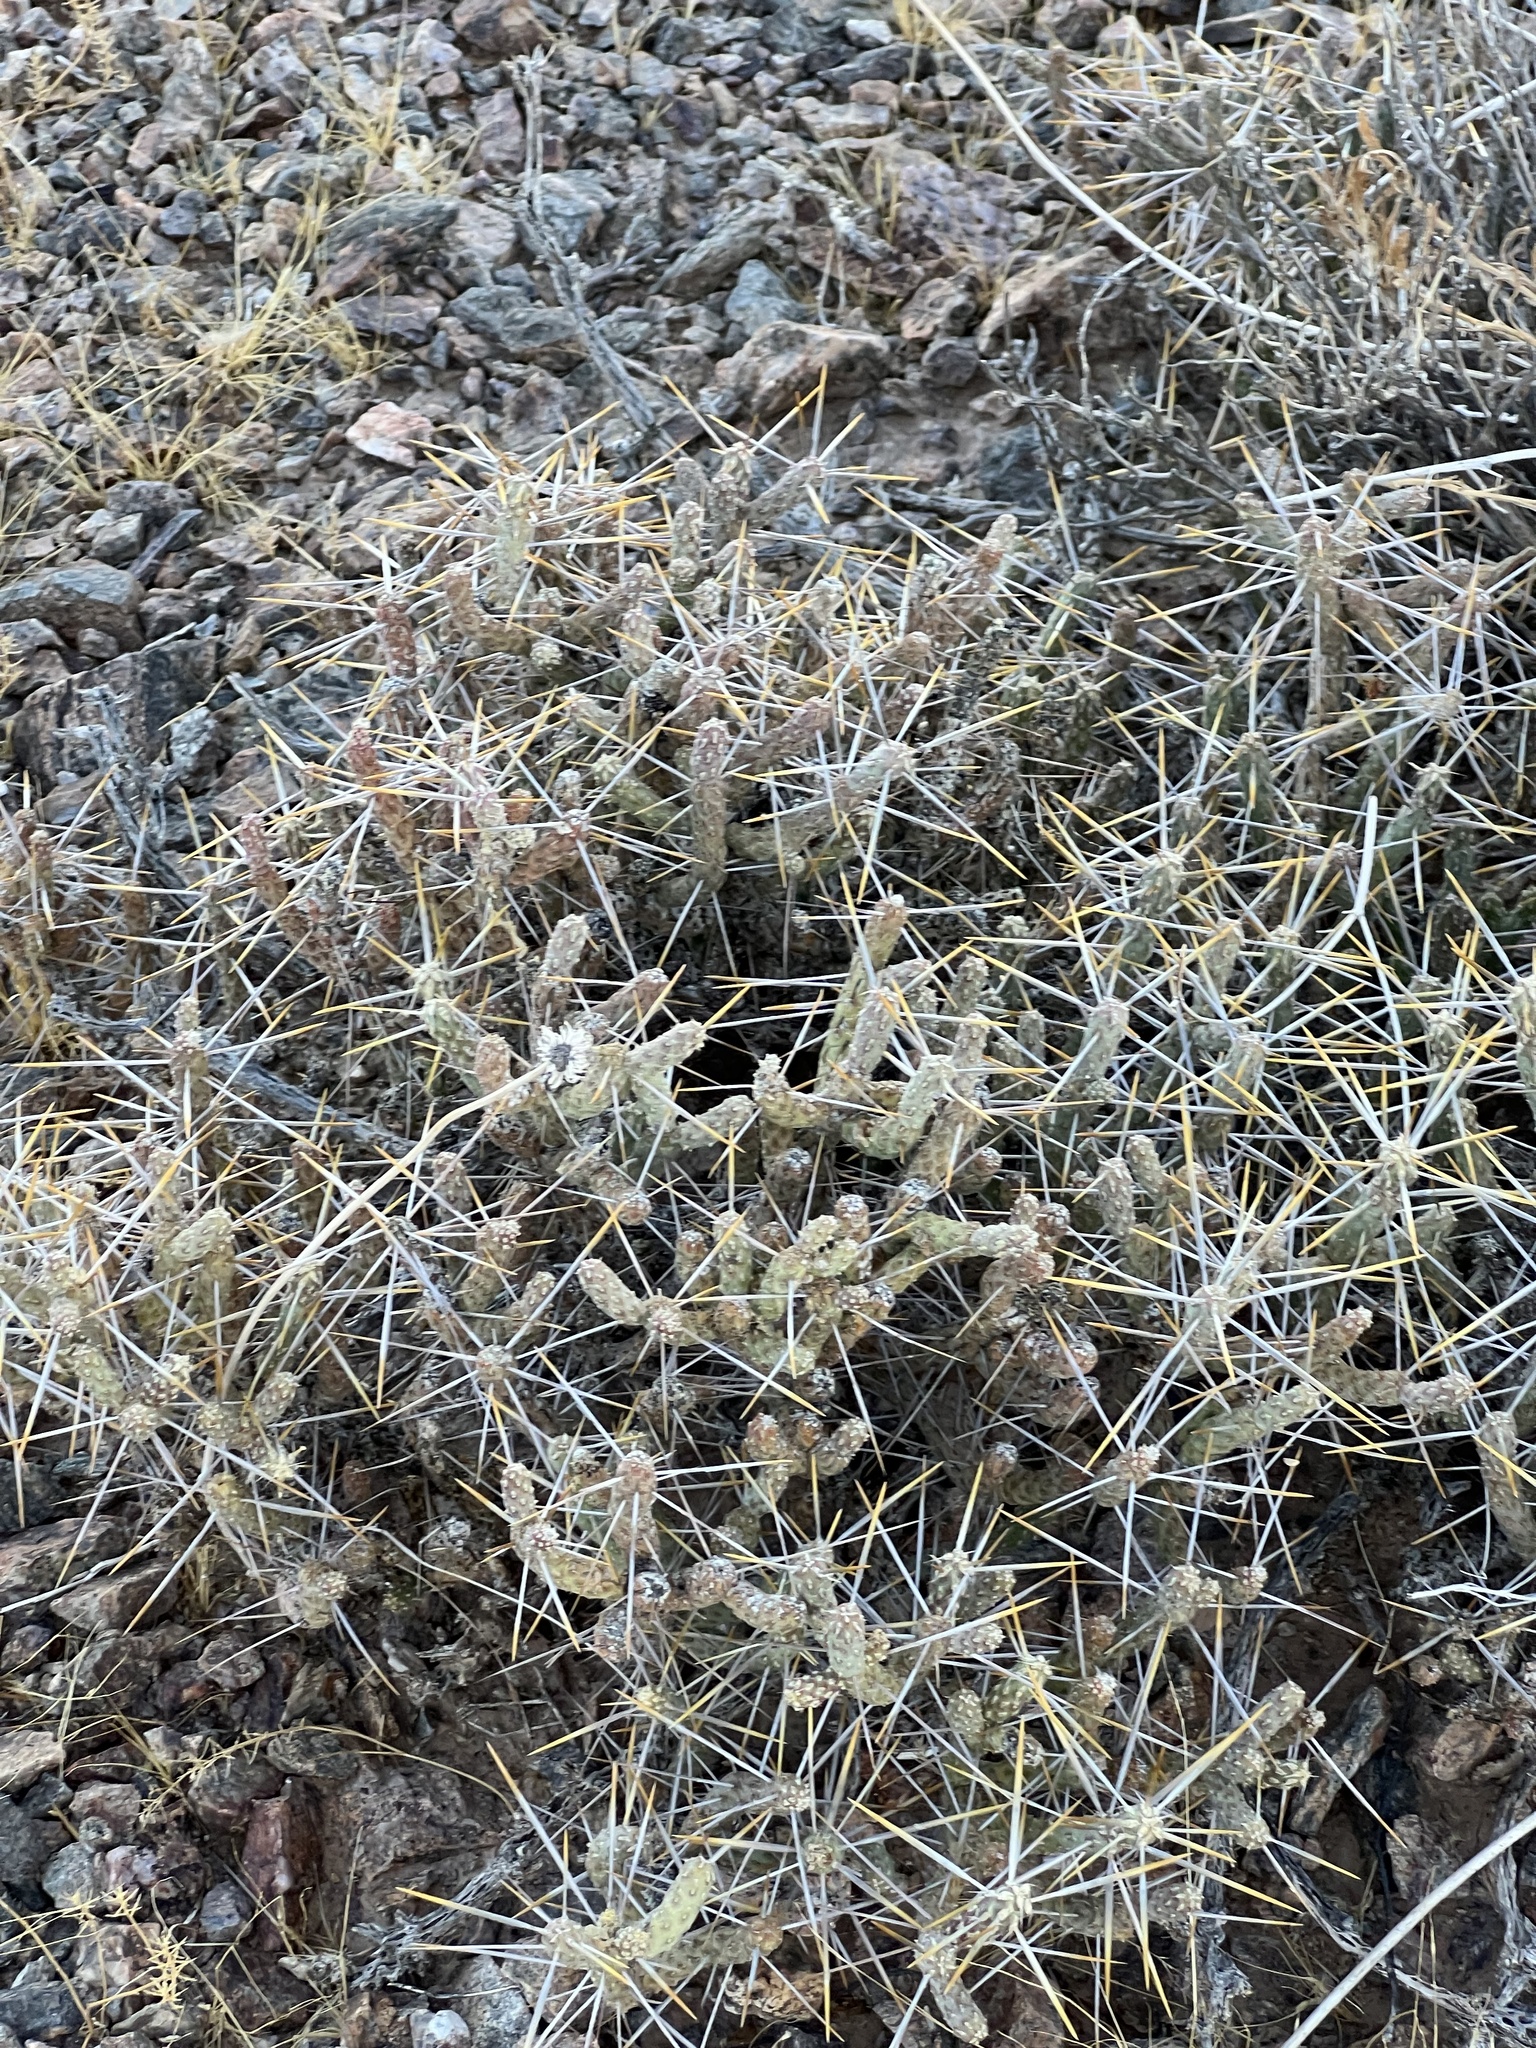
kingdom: Plantae
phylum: Tracheophyta
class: Magnoliopsida
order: Caryophyllales
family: Cactaceae
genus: Cylindropuntia
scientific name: Cylindropuntia ramosissima
